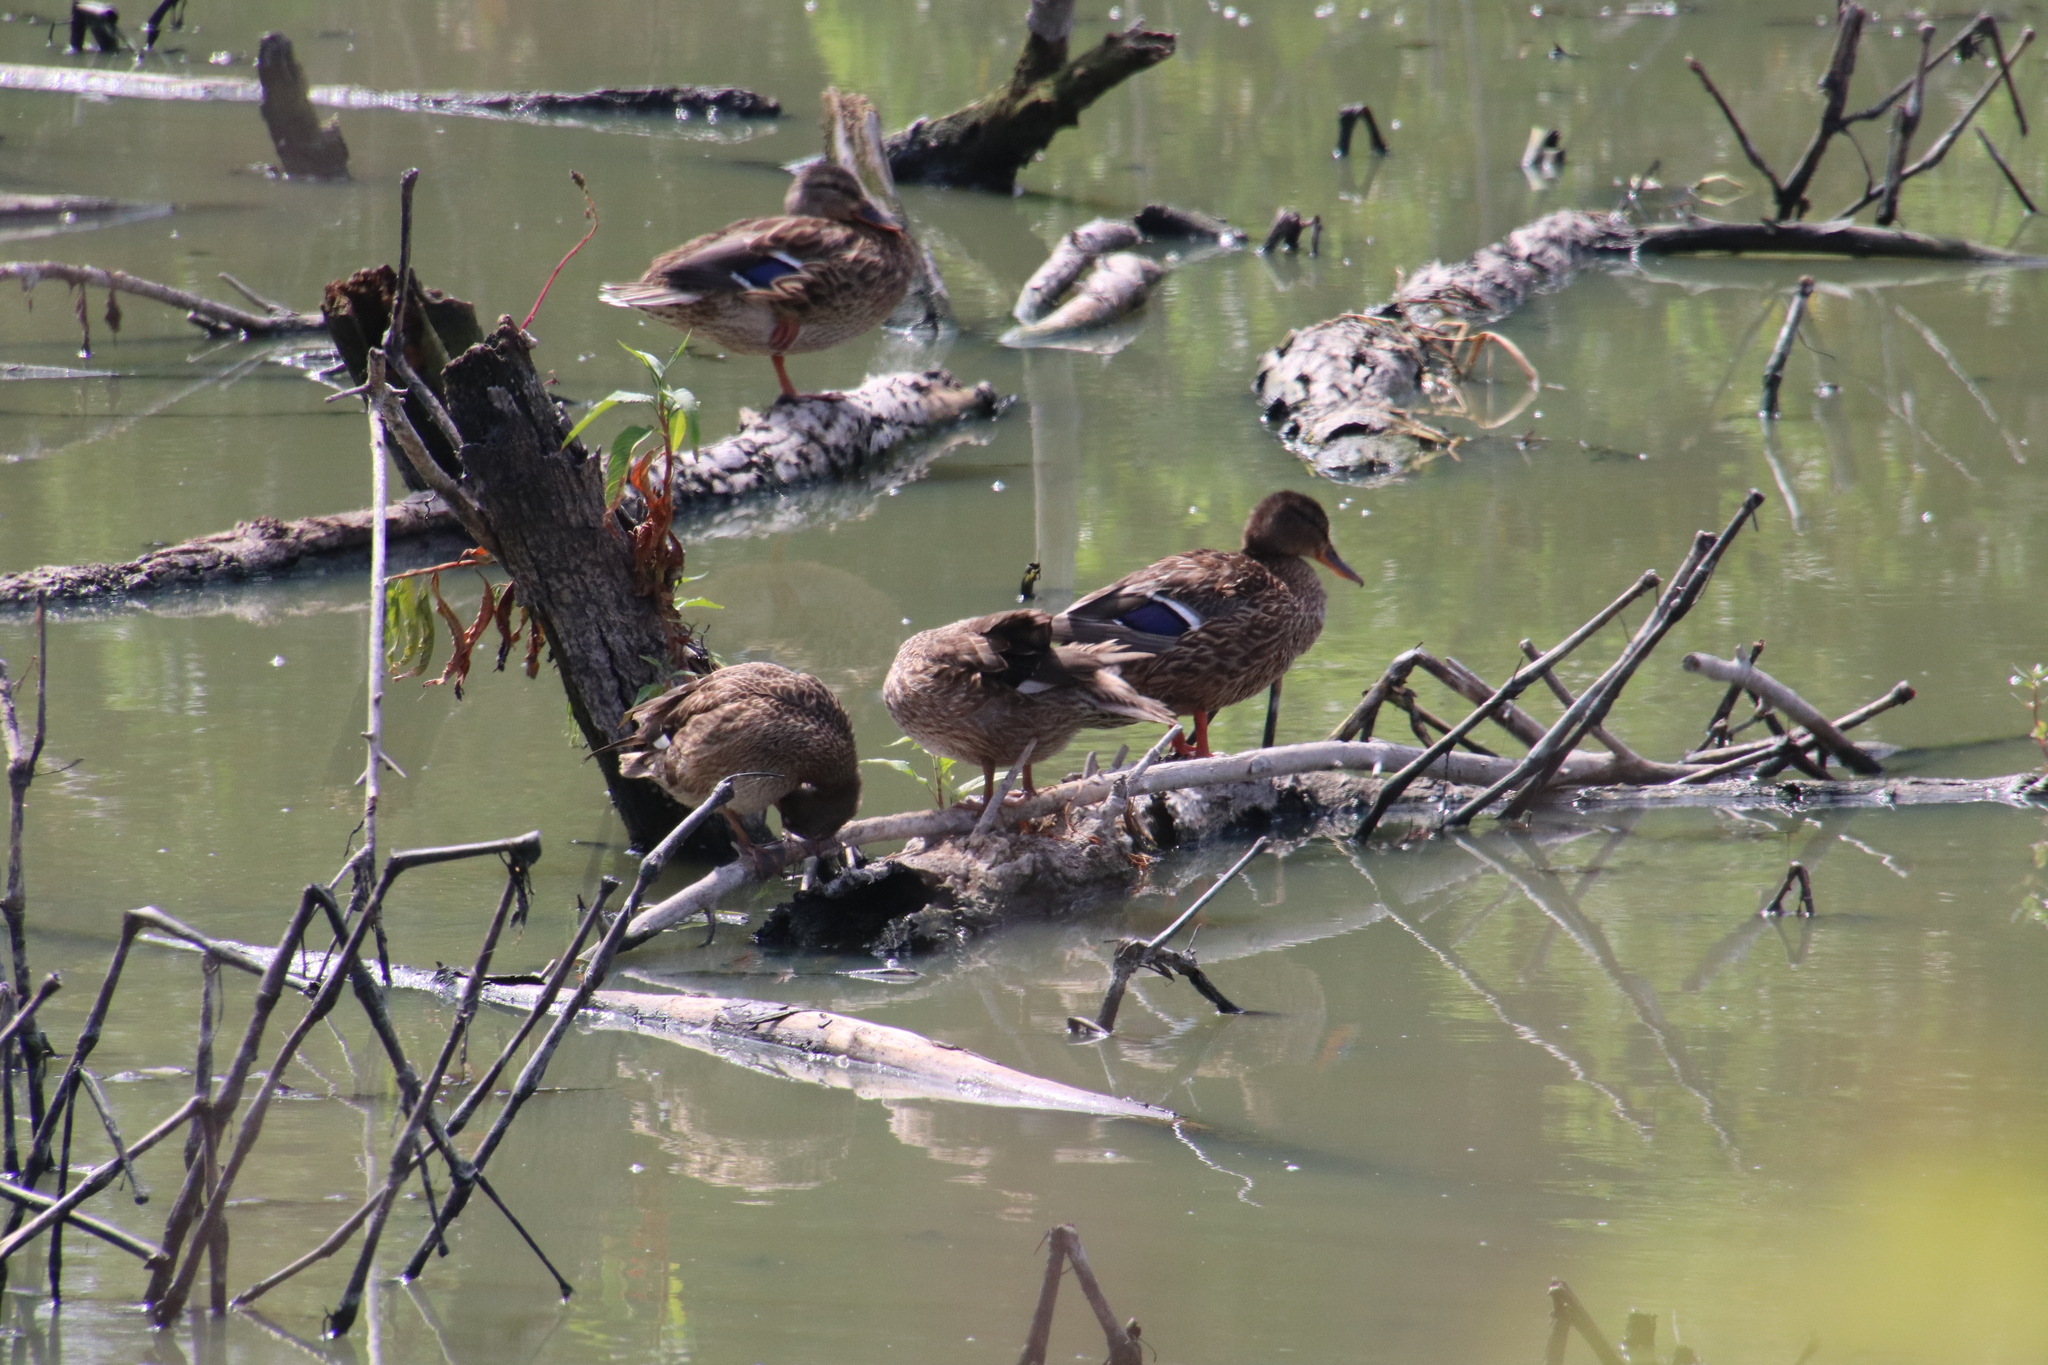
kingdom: Animalia
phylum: Chordata
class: Aves
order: Anseriformes
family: Anatidae
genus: Anas
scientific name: Anas platyrhynchos
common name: Mallard
